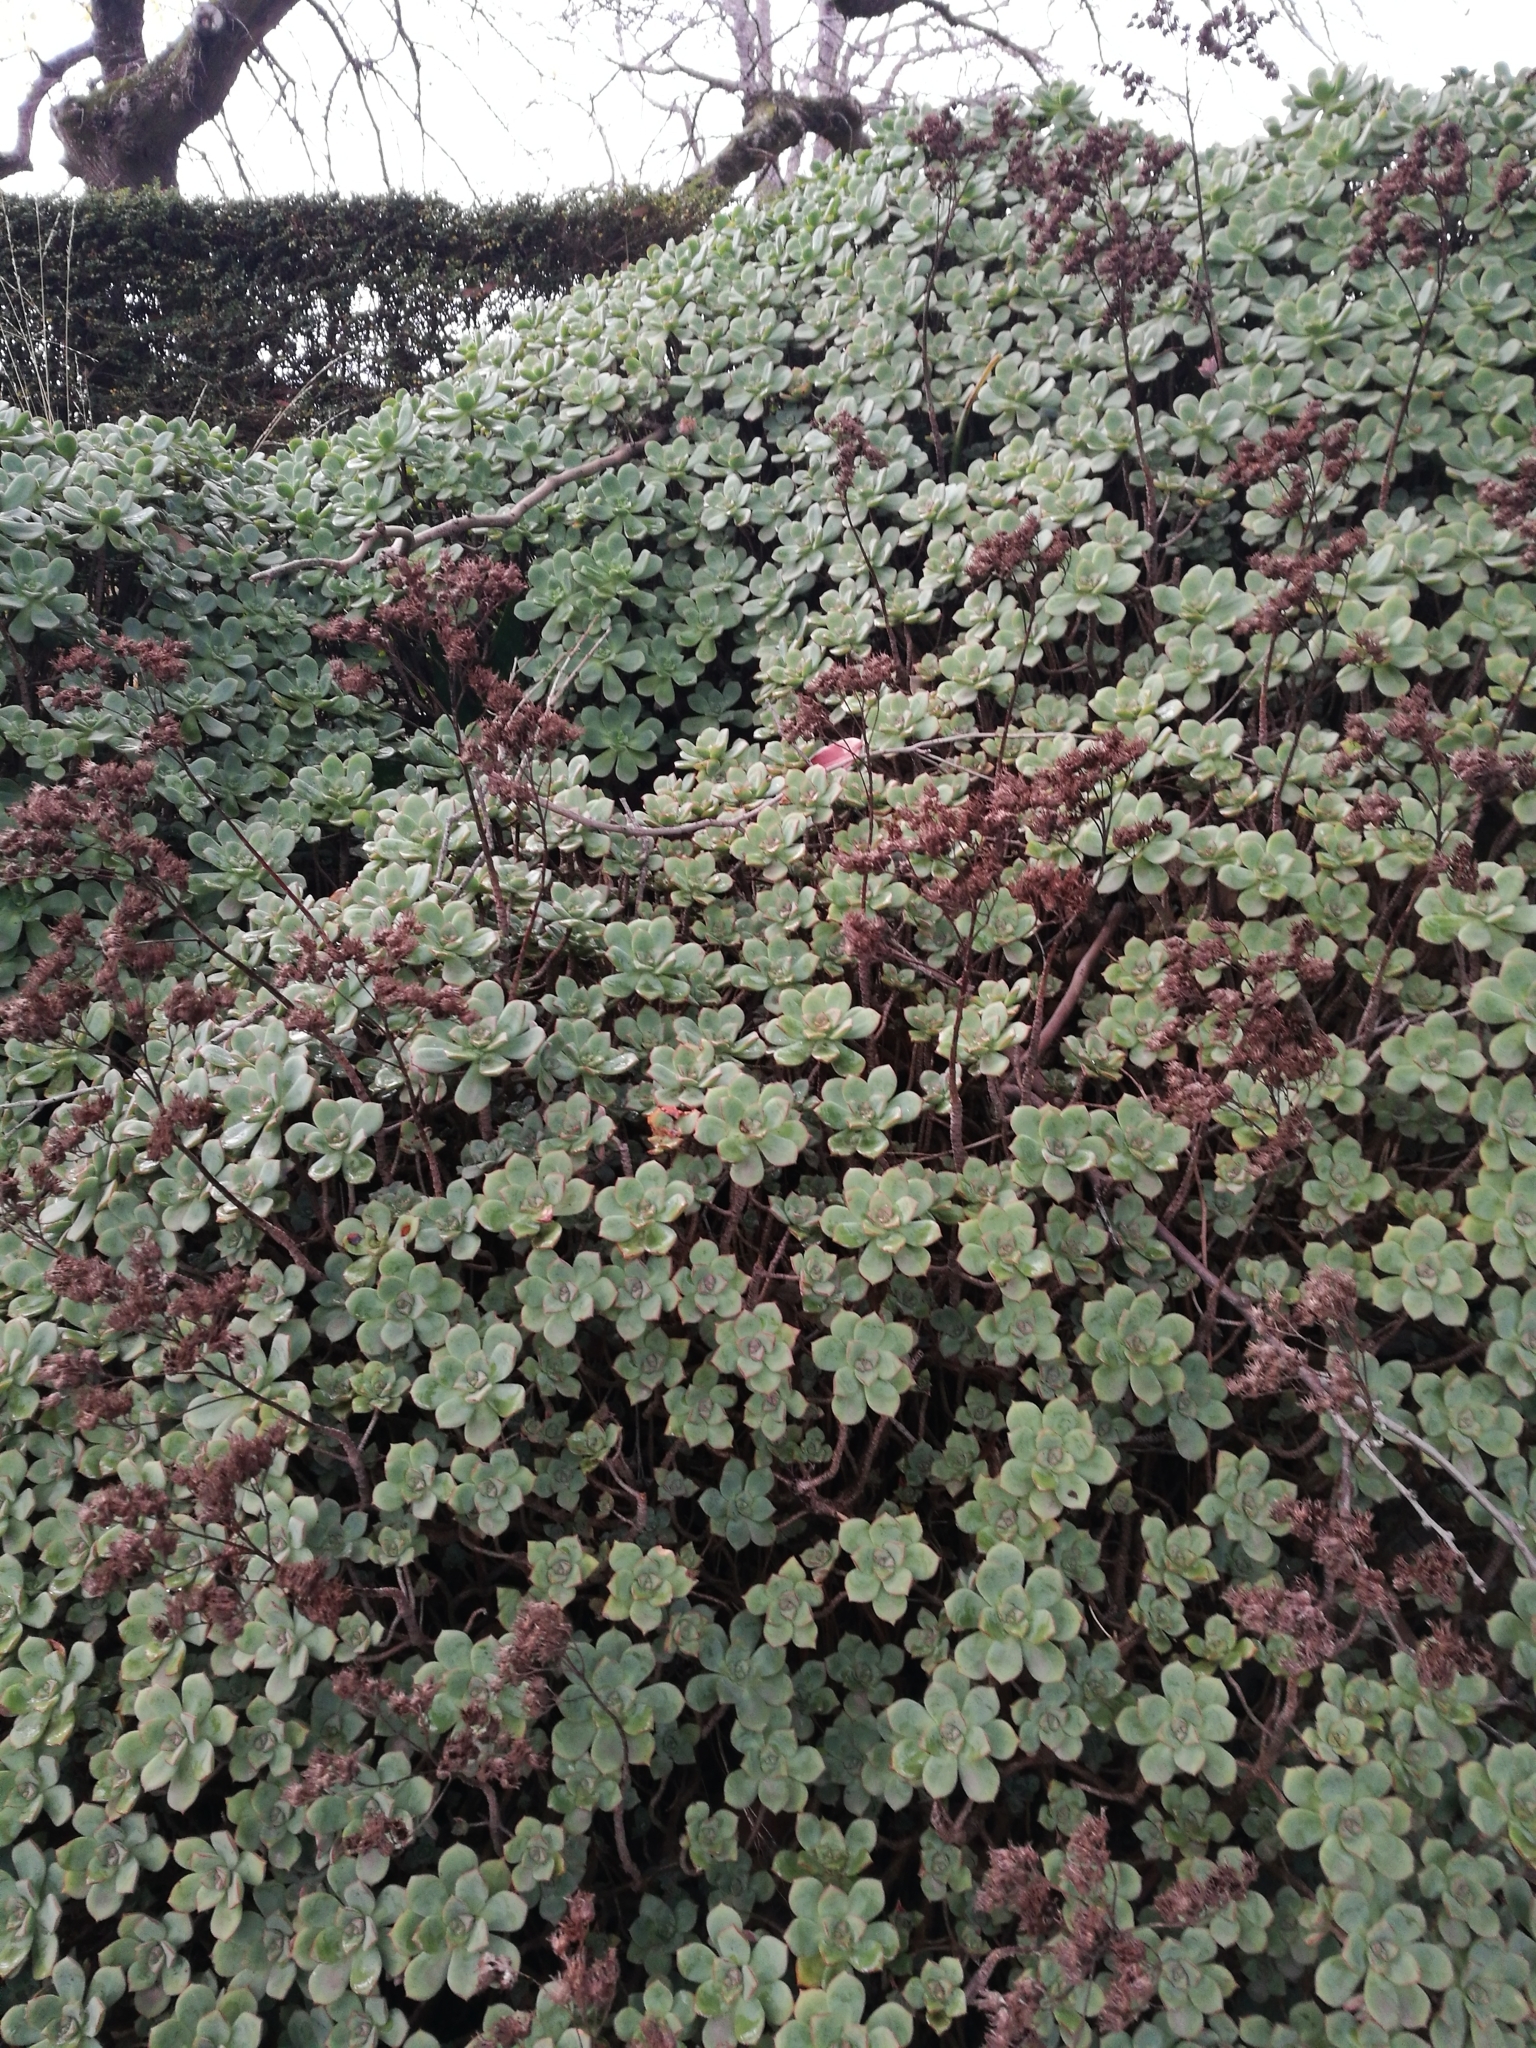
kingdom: Plantae
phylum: Tracheophyta
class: Magnoliopsida
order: Saxifragales
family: Crassulaceae
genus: Aeonium
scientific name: Aeonium haworthii
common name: Haworth's aeonium
